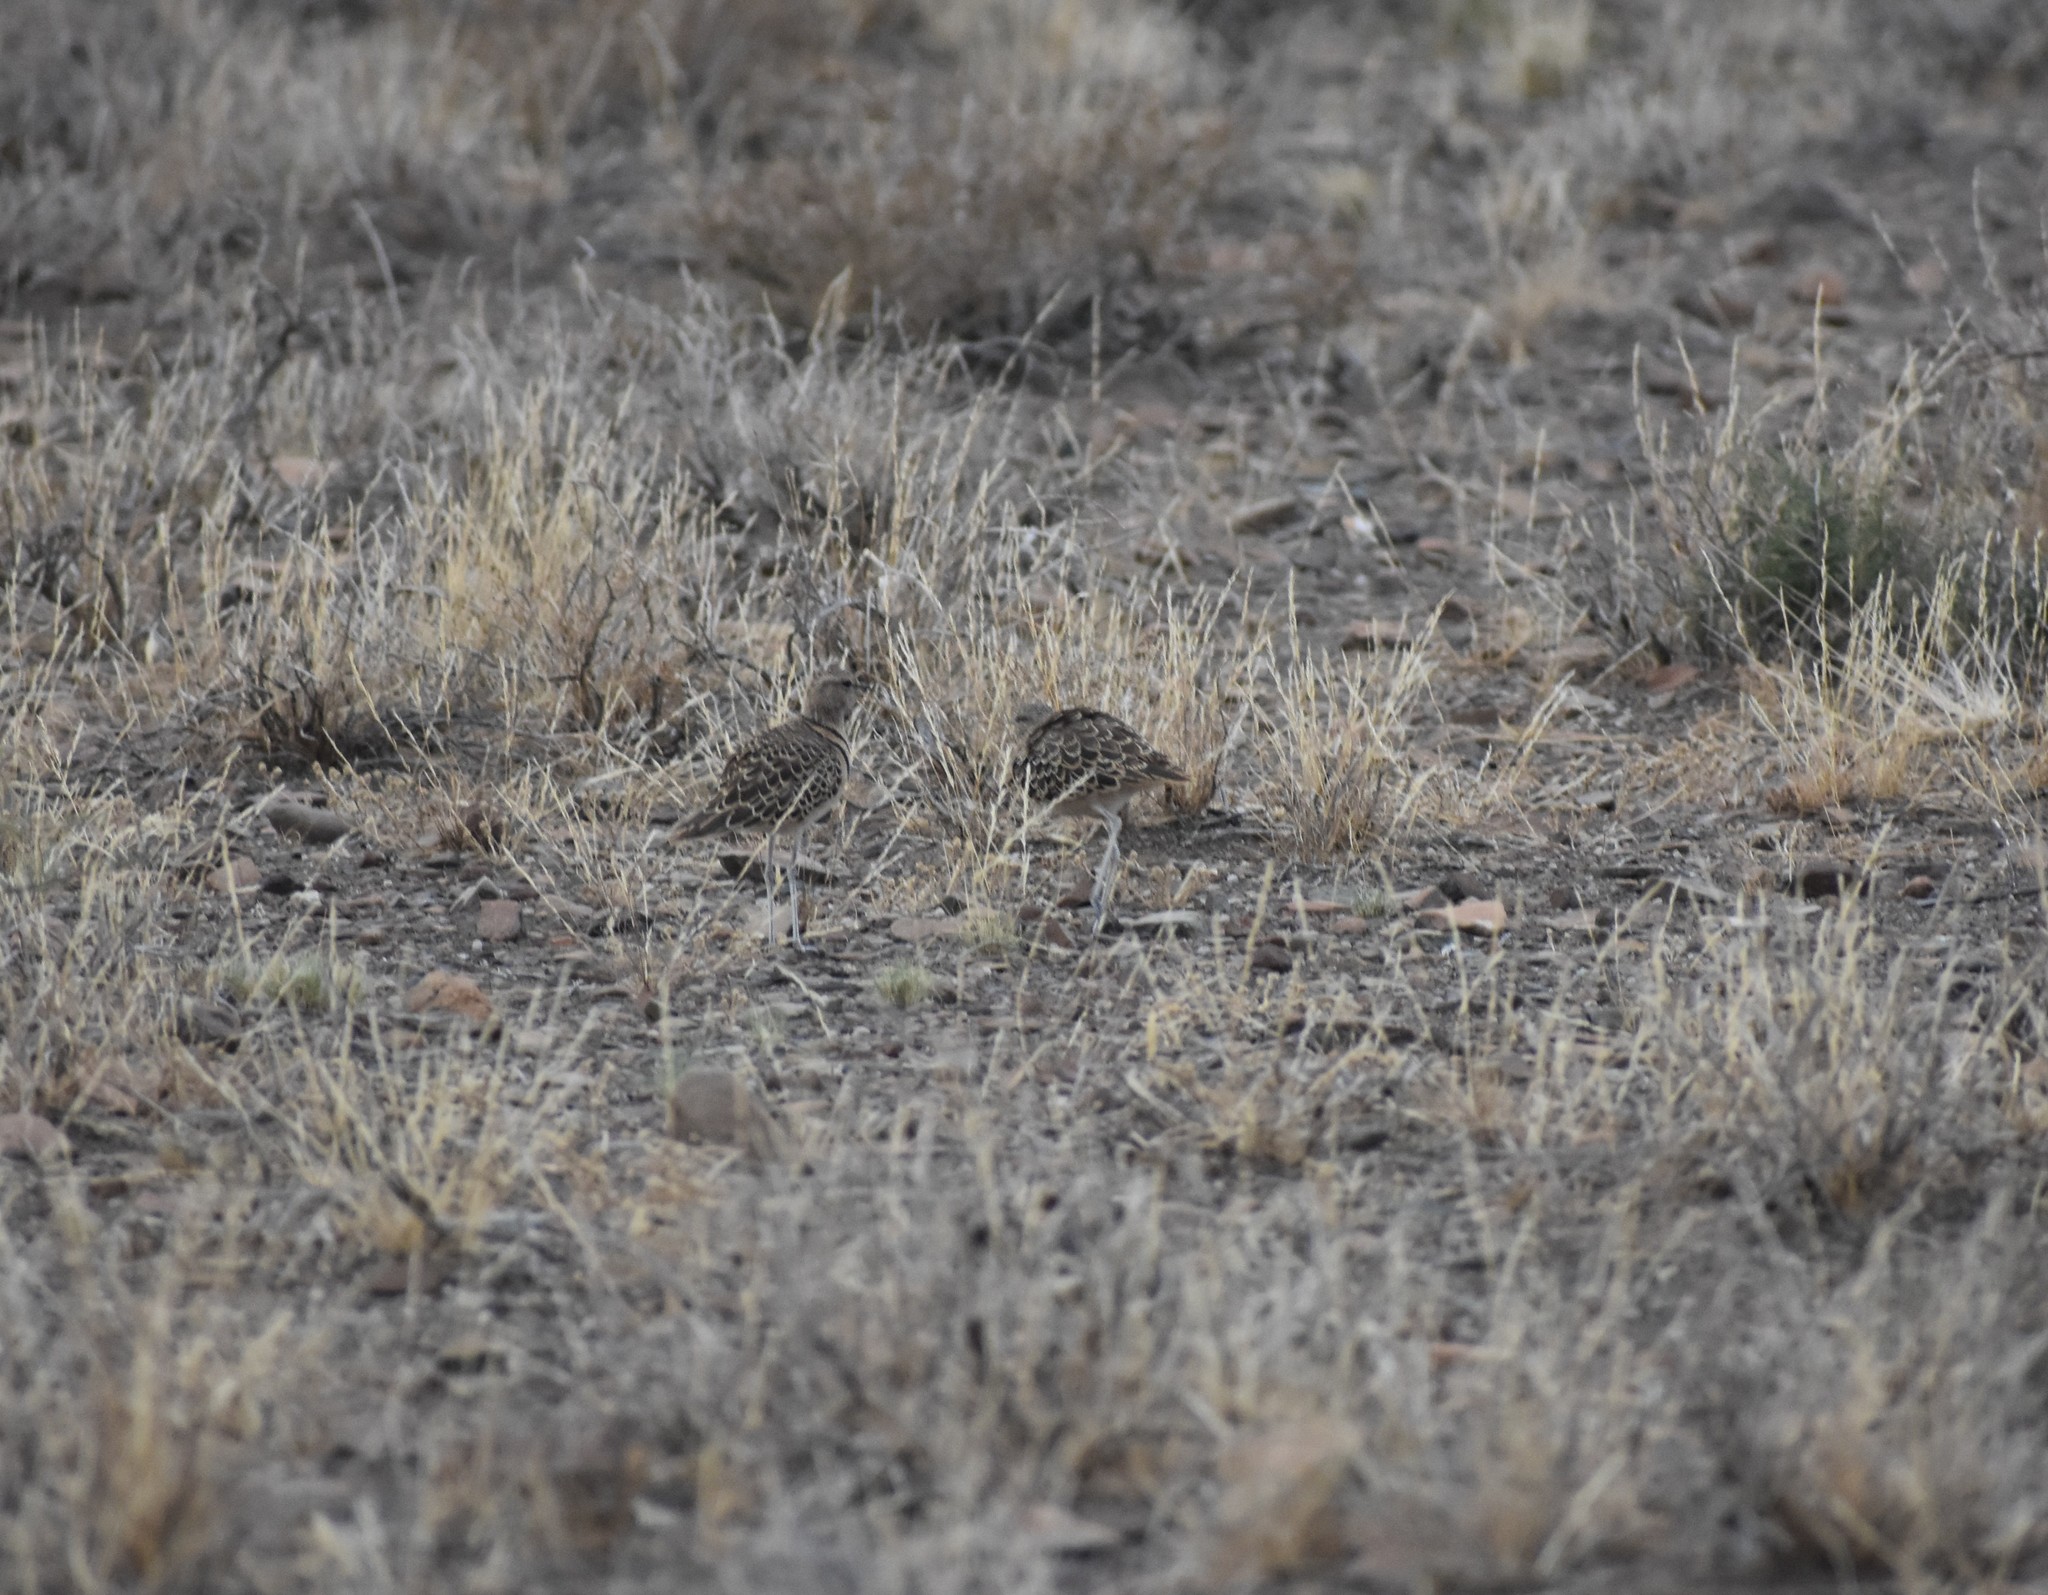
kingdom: Animalia
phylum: Chordata
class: Aves
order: Charadriiformes
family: Glareolidae
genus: Rhinoptilus
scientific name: Rhinoptilus africanus
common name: Double-banded courser
